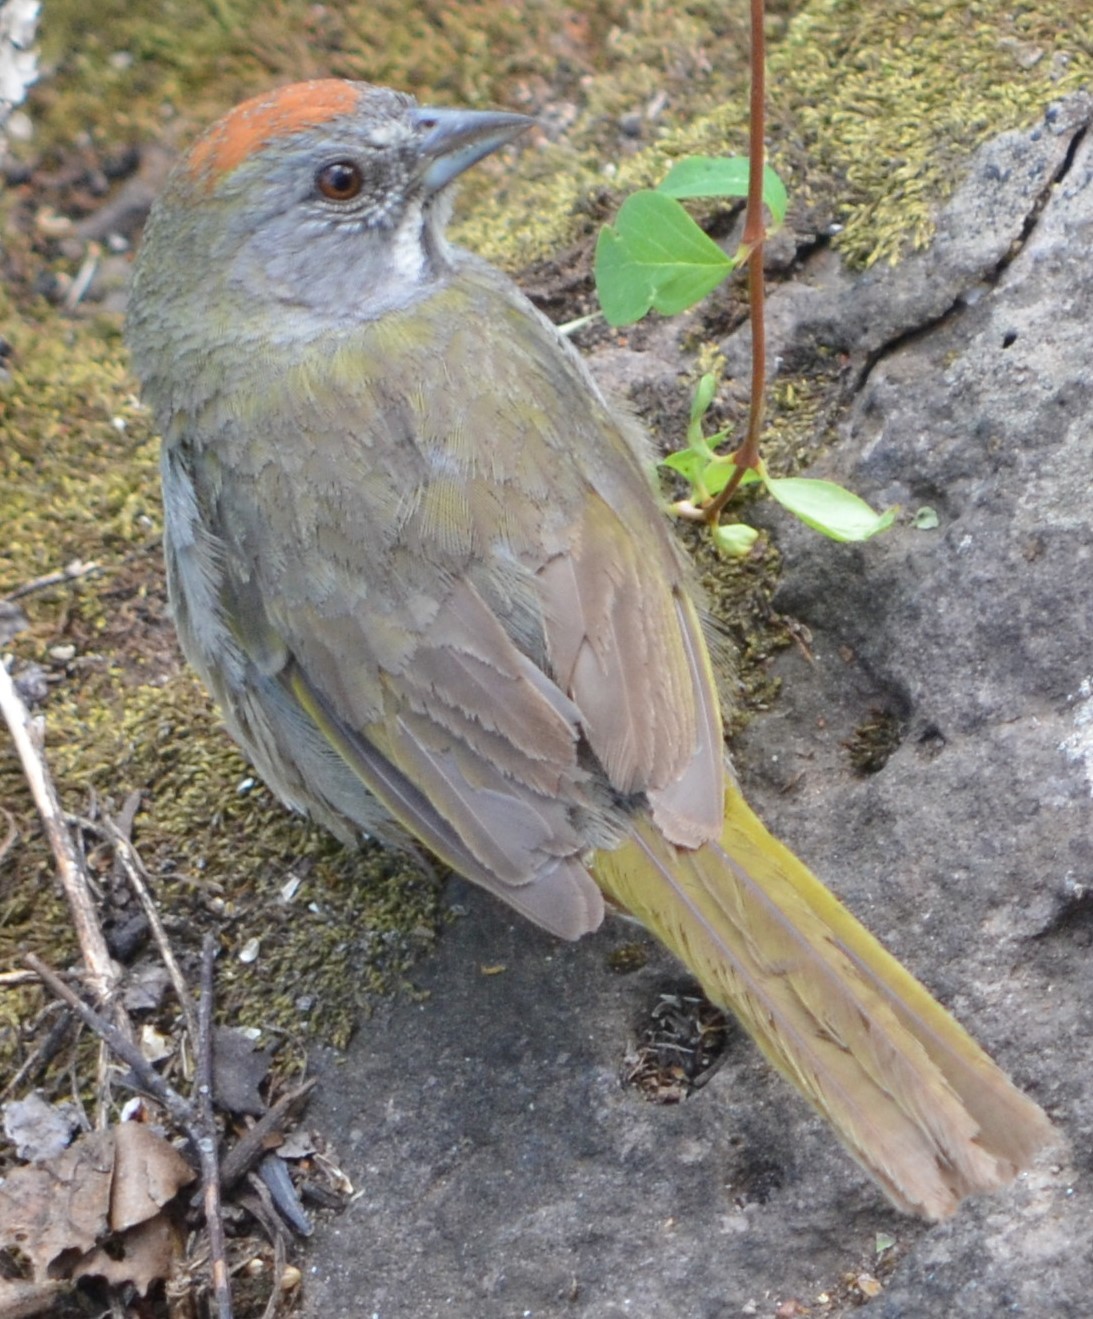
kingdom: Animalia
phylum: Chordata
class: Aves
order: Passeriformes
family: Passerellidae
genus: Pipilo
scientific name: Pipilo chlorurus
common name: Green-tailed towhee
